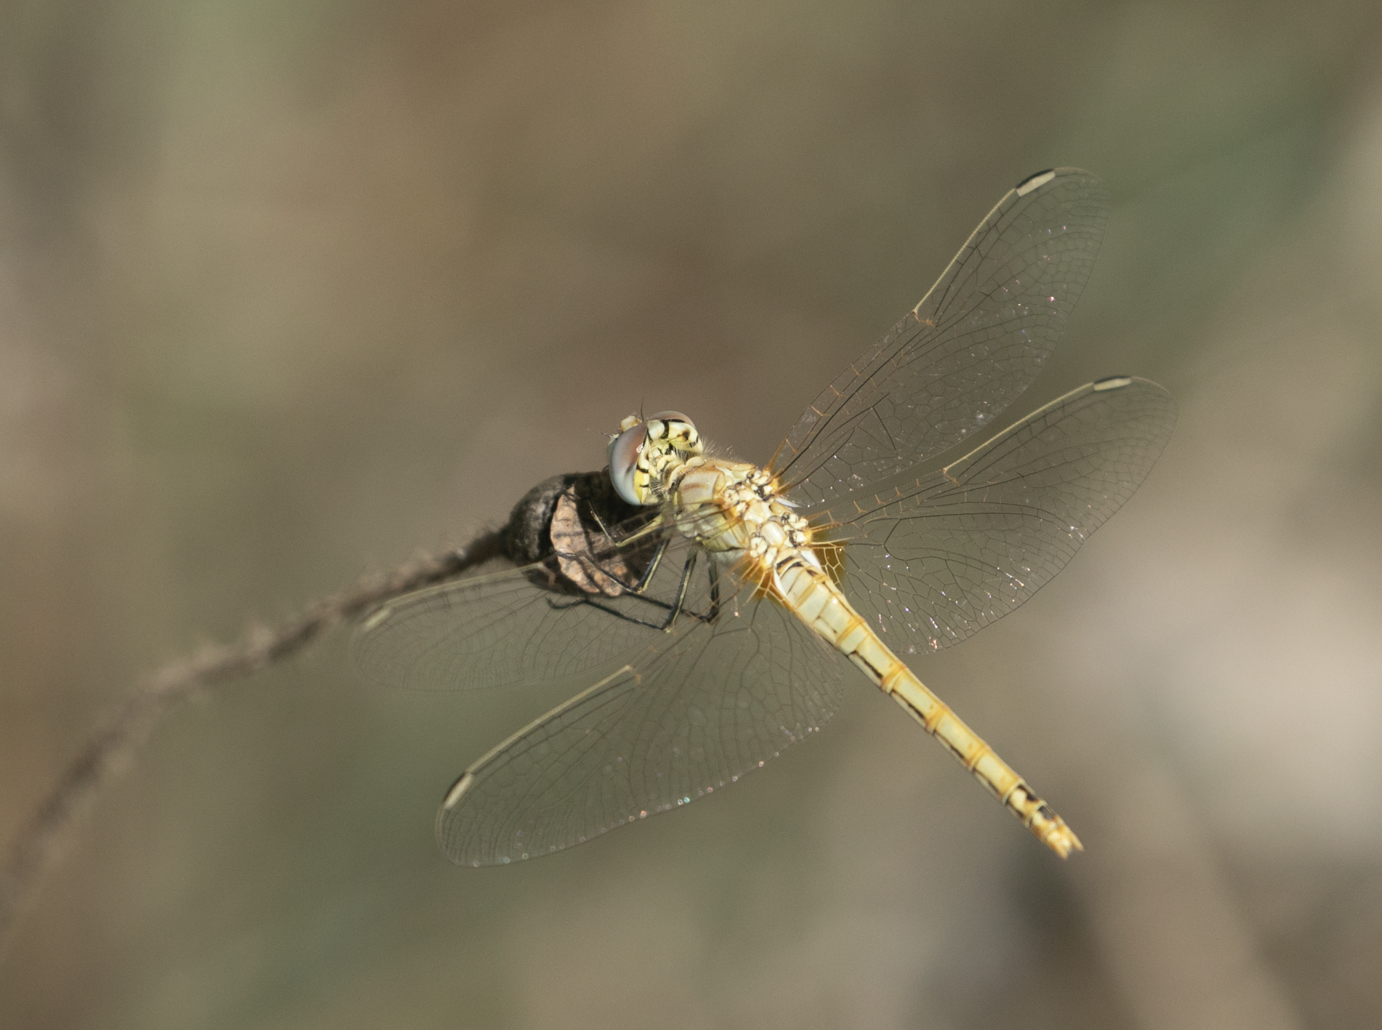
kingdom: Animalia
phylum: Arthropoda
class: Insecta
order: Odonata
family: Libellulidae
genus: Sympetrum
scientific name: Sympetrum fonscolombii
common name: Red-veined darter
